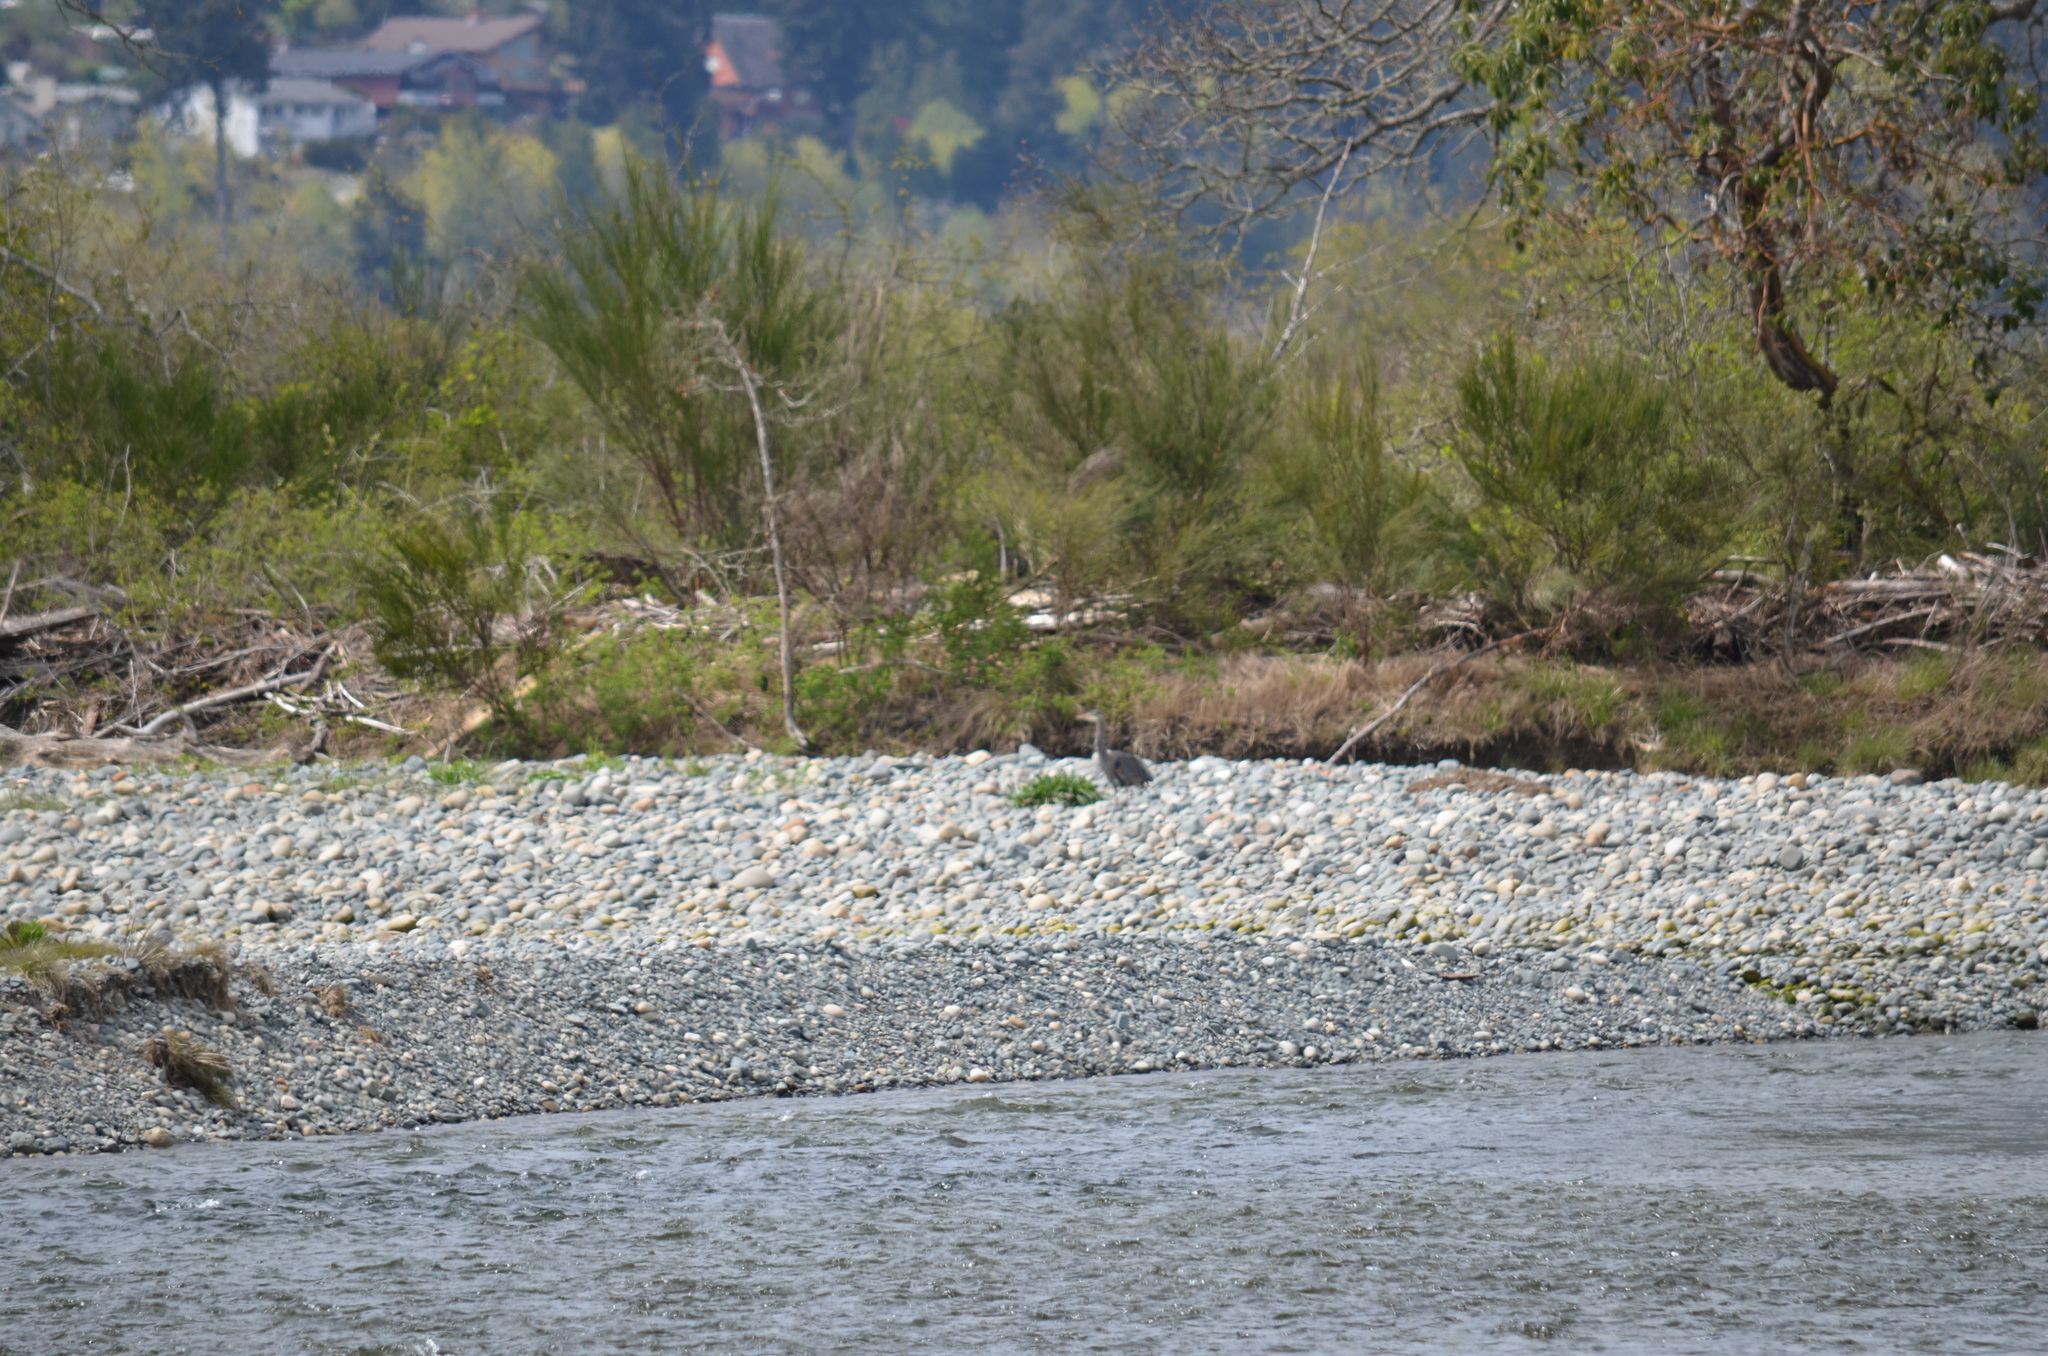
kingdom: Animalia
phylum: Chordata
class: Aves
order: Pelecaniformes
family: Ardeidae
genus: Ardea
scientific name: Ardea herodias
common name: Great blue heron
